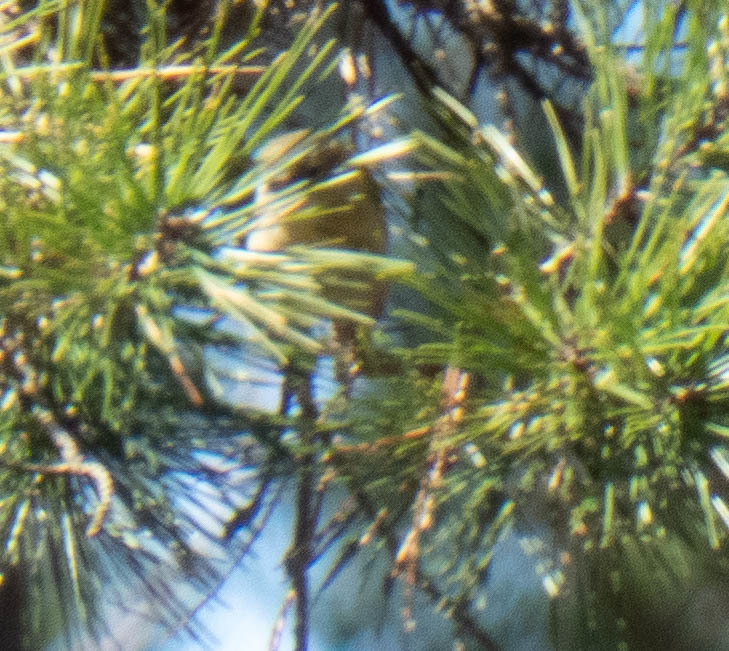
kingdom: Animalia
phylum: Chordata
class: Aves
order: Passeriformes
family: Regulidae
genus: Regulus
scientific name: Regulus calendula
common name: Ruby-crowned kinglet
